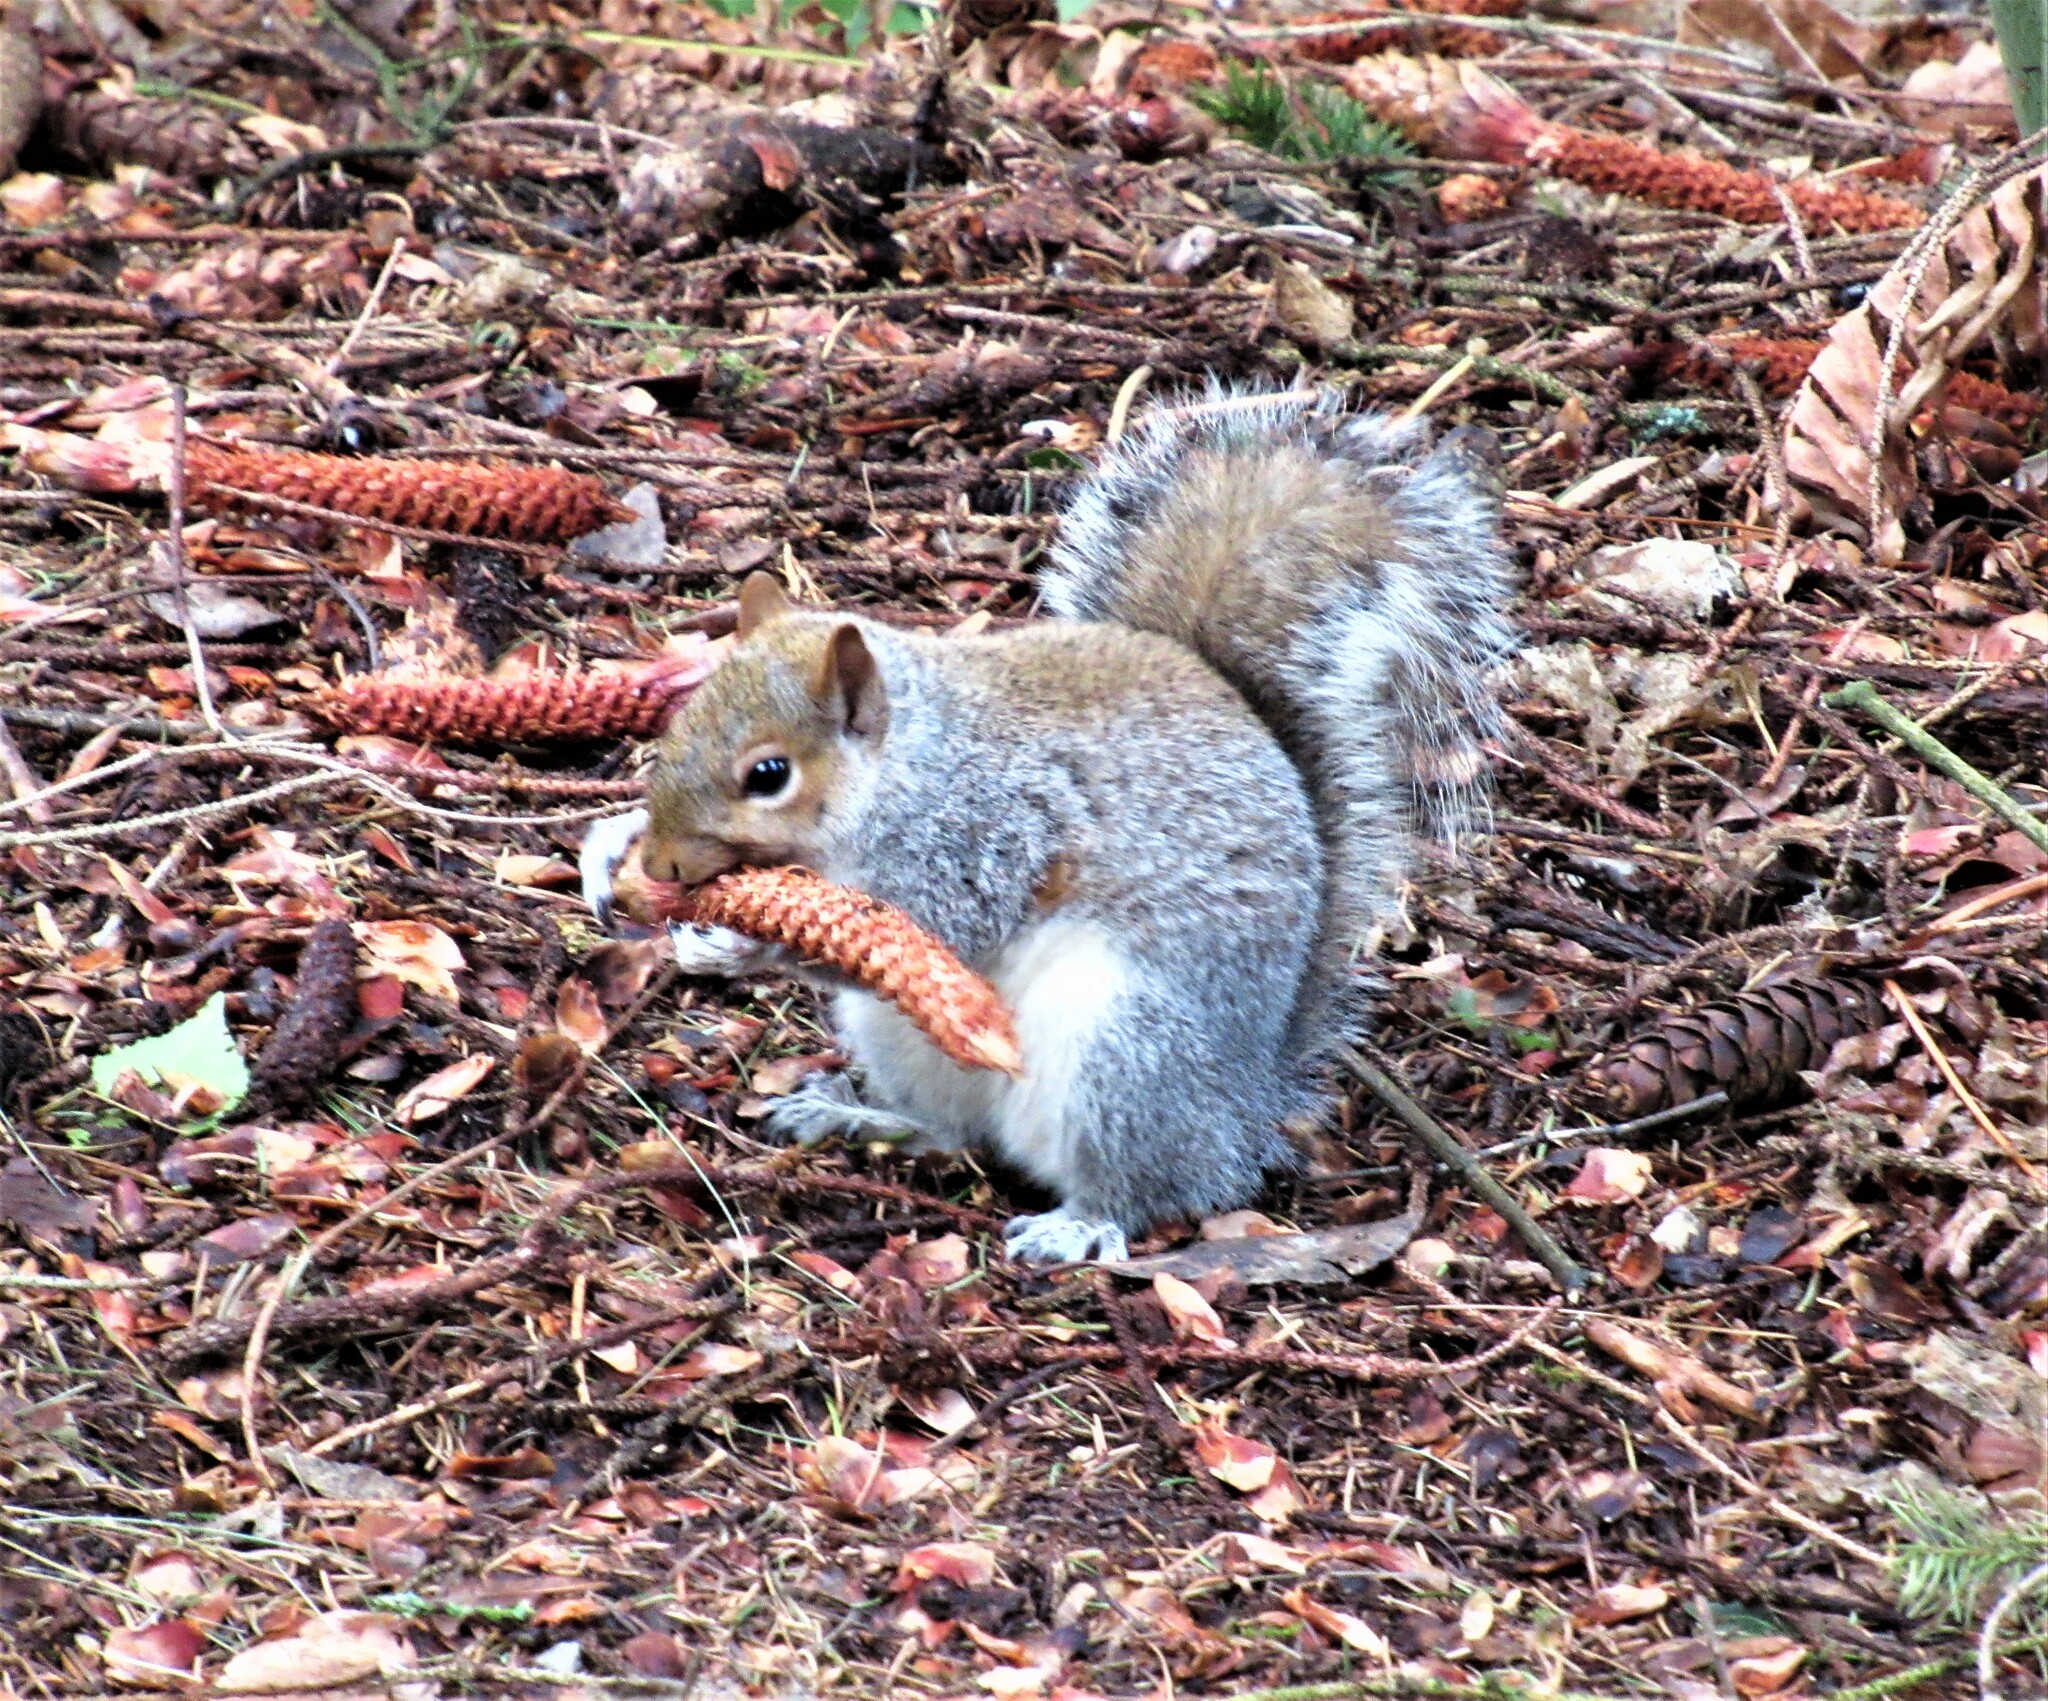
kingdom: Animalia
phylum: Chordata
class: Mammalia
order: Rodentia
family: Sciuridae
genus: Sciurus
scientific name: Sciurus carolinensis
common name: Eastern gray squirrel
